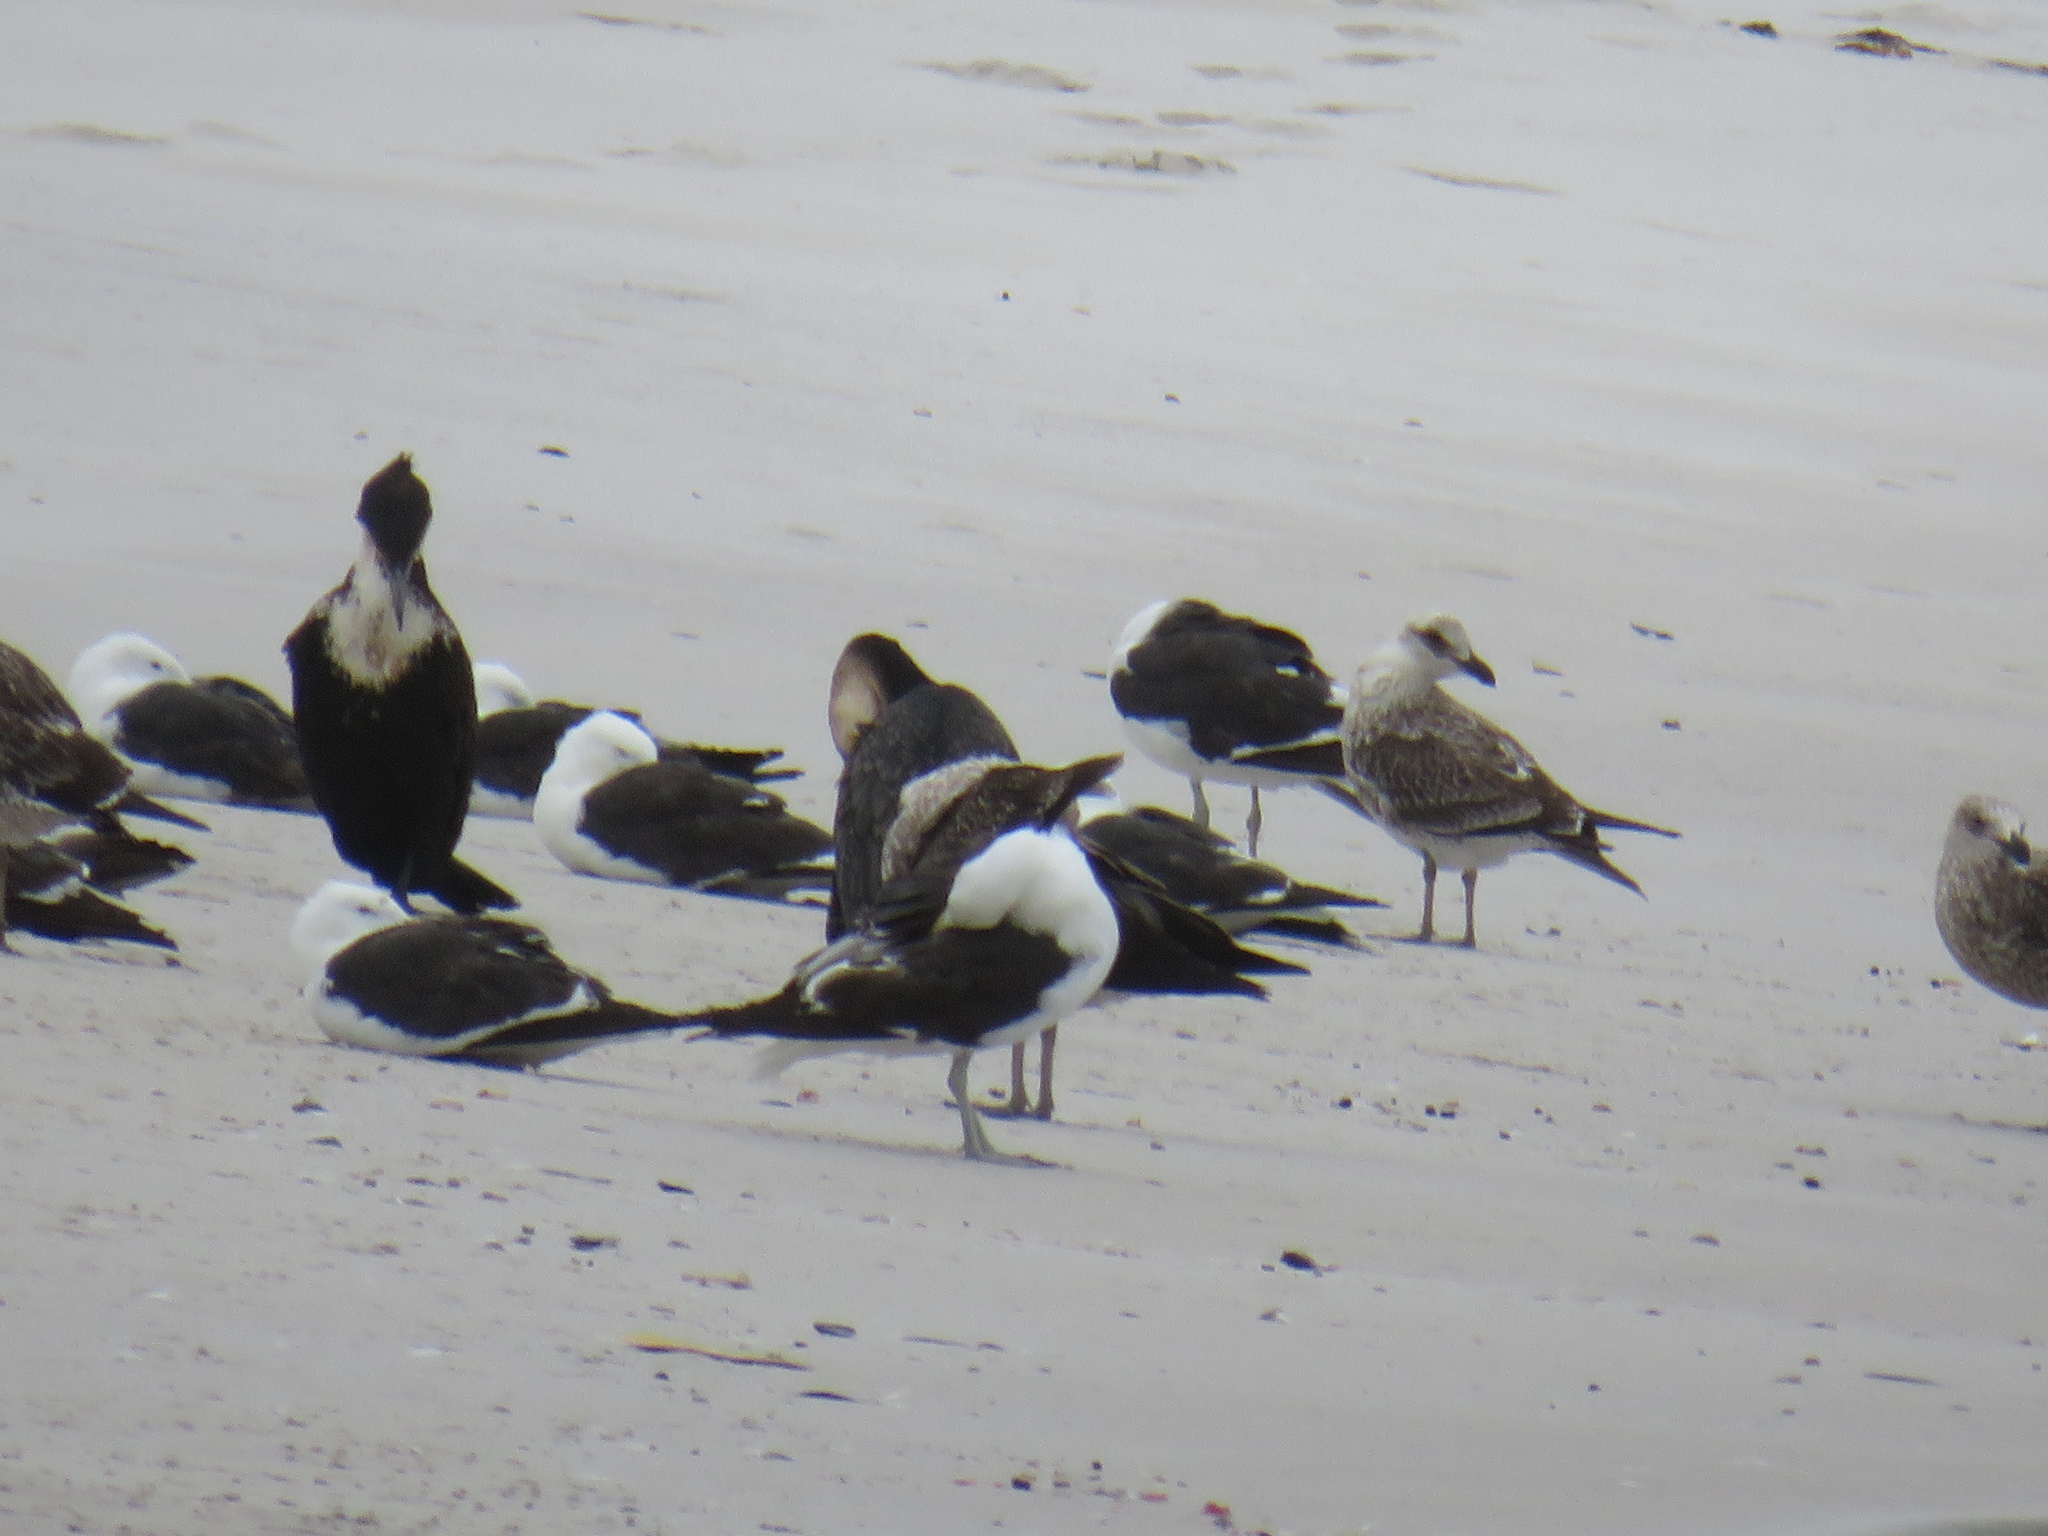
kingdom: Animalia
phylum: Chordata
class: Aves
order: Suliformes
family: Phalacrocoracidae
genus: Phalacrocorax
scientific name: Phalacrocorax carbo
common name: Great cormorant
